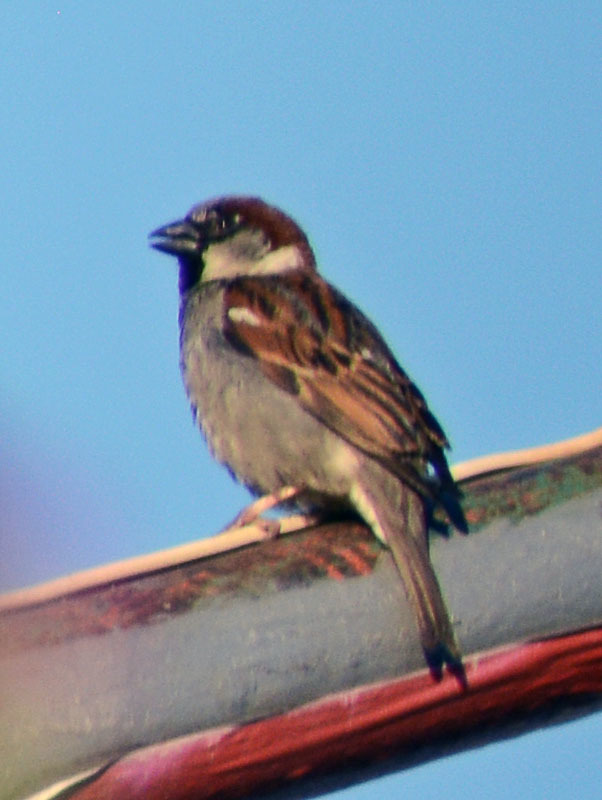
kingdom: Animalia
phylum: Chordata
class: Aves
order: Passeriformes
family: Passeridae
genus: Passer
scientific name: Passer domesticus
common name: House sparrow
